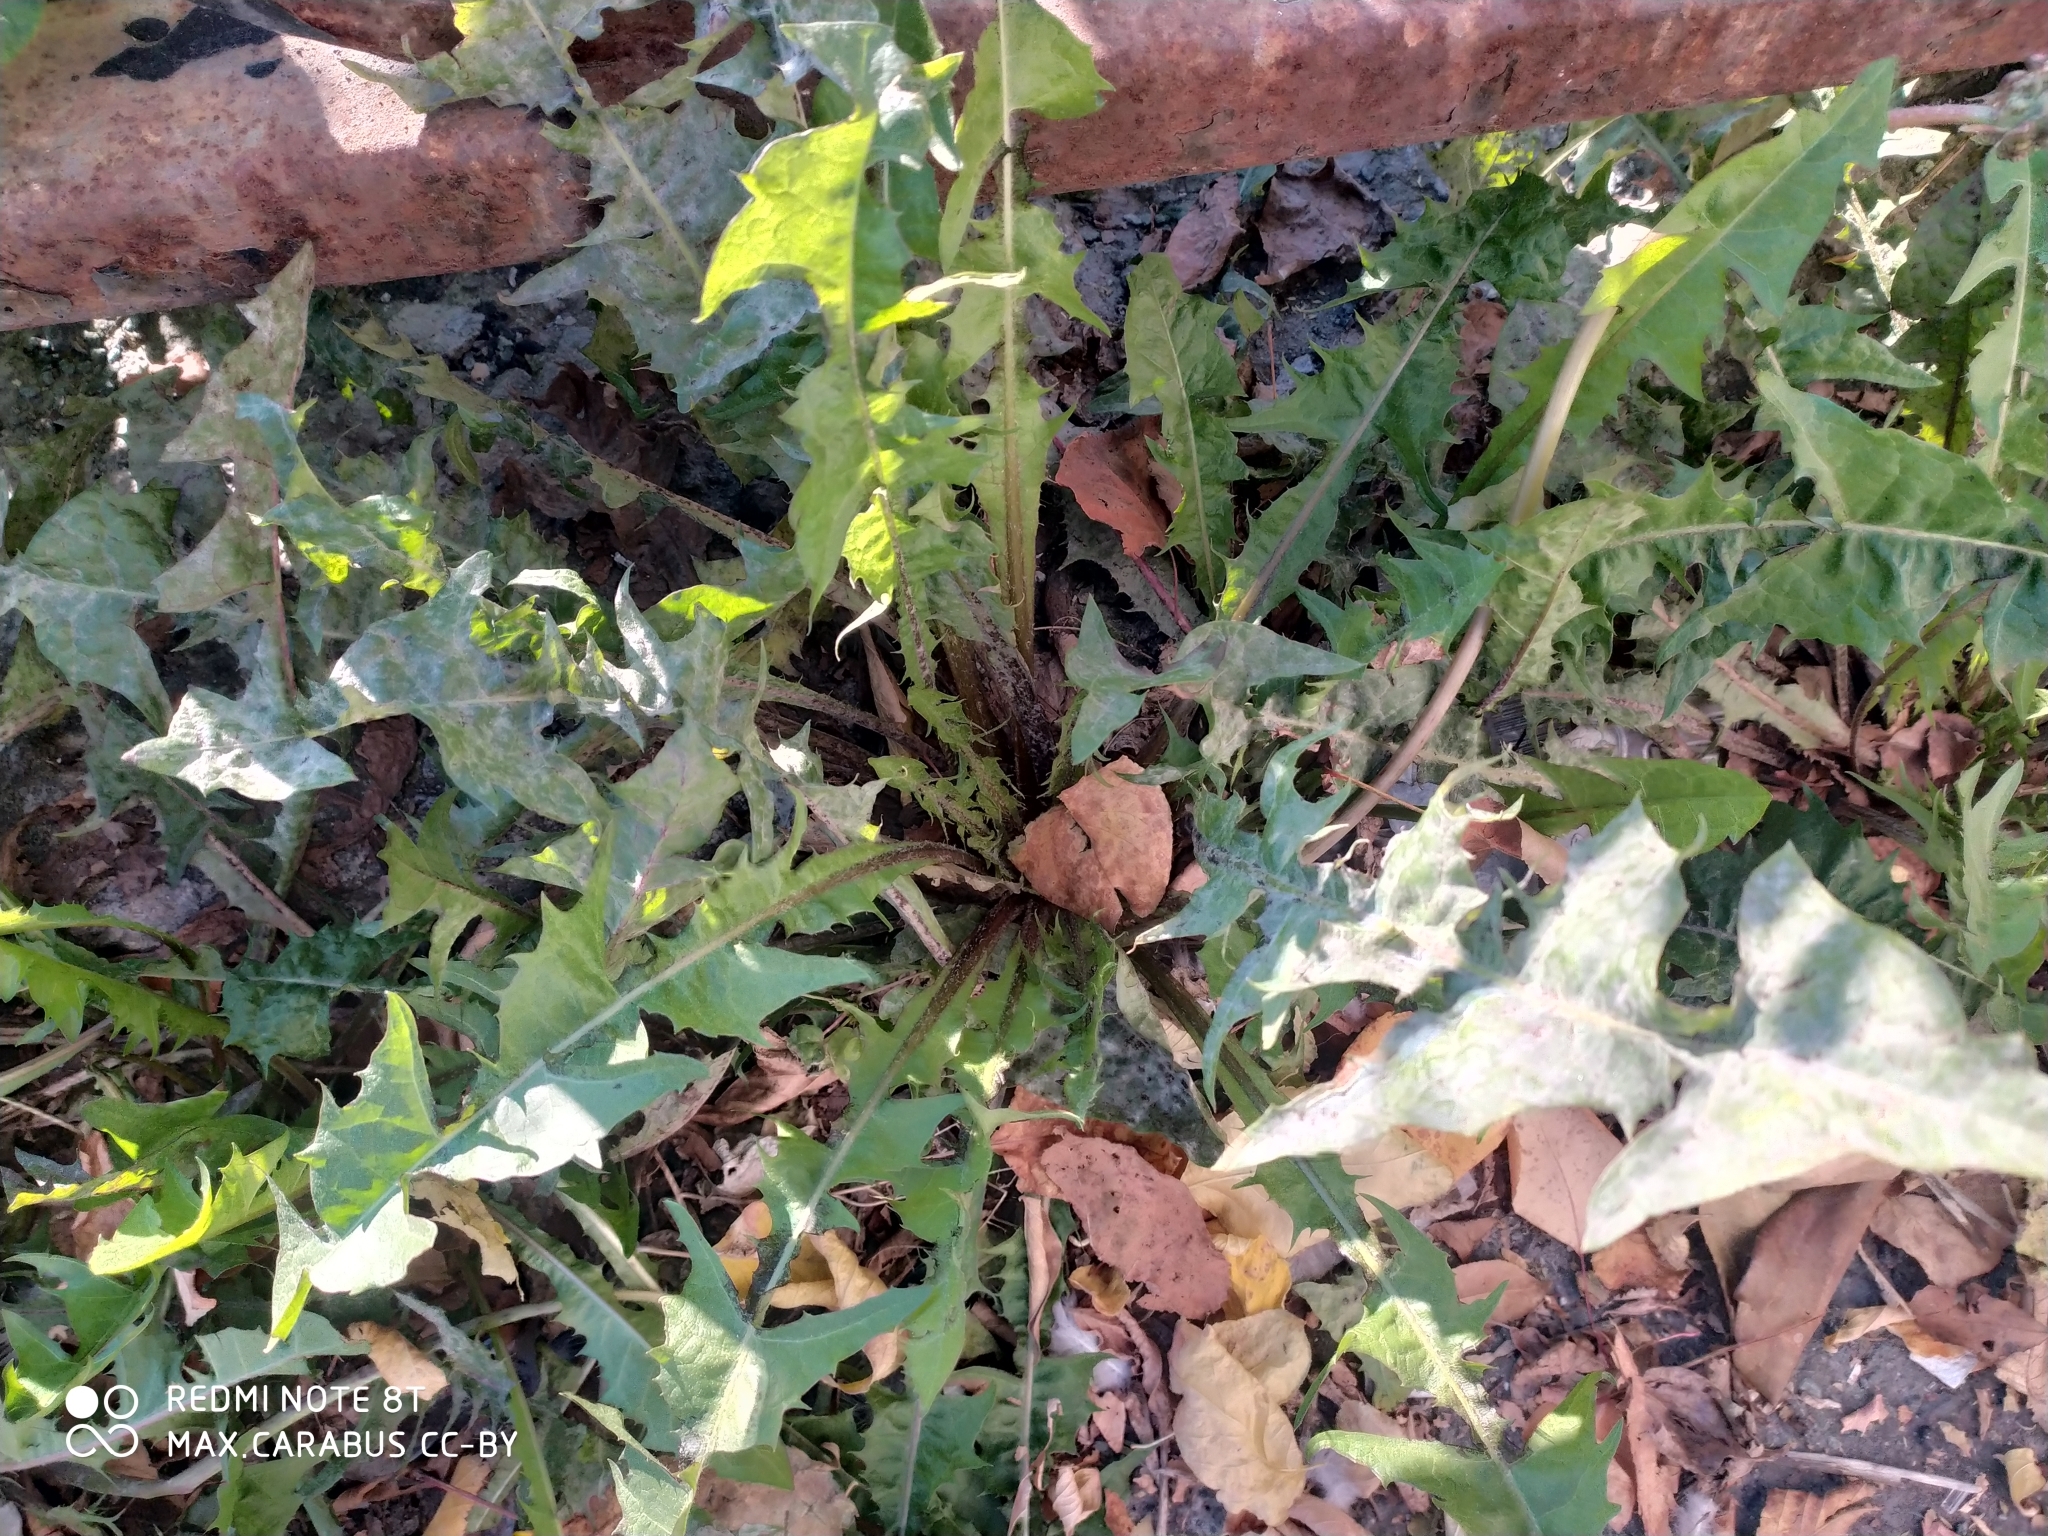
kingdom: Plantae
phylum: Tracheophyta
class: Magnoliopsida
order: Asterales
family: Asteraceae
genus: Taraxacum
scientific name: Taraxacum officinale
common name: Common dandelion
